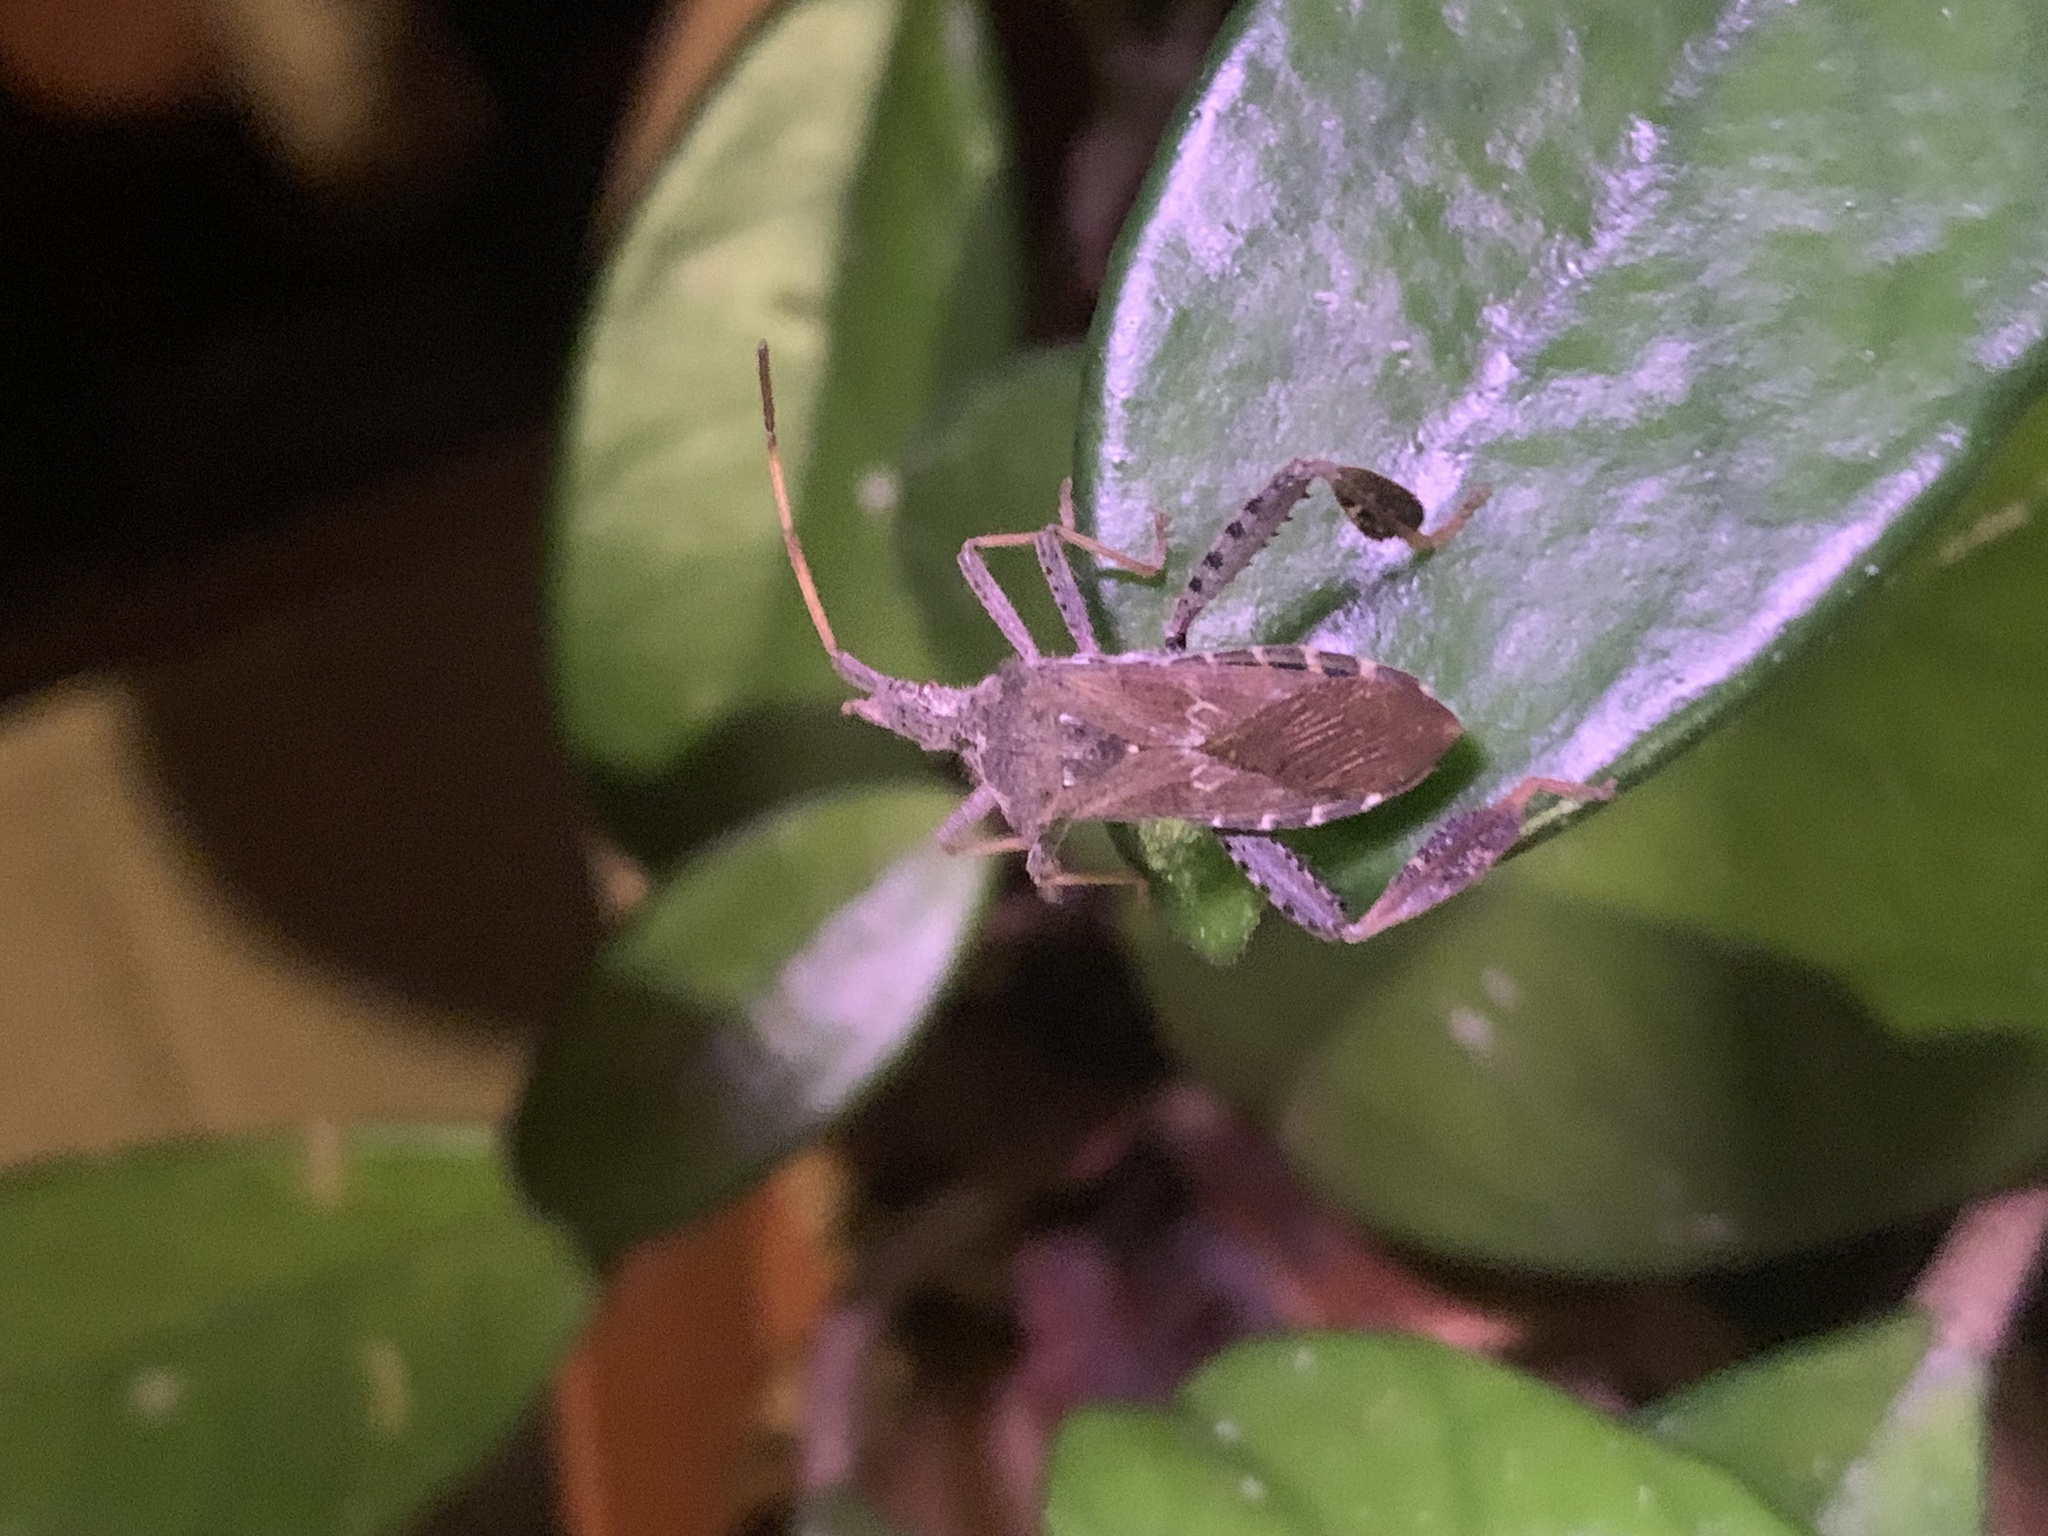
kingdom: Animalia
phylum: Arthropoda
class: Insecta
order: Hemiptera
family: Coreidae
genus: Leptoglossus
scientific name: Leptoglossus corculus
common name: Southern pine seed bug
